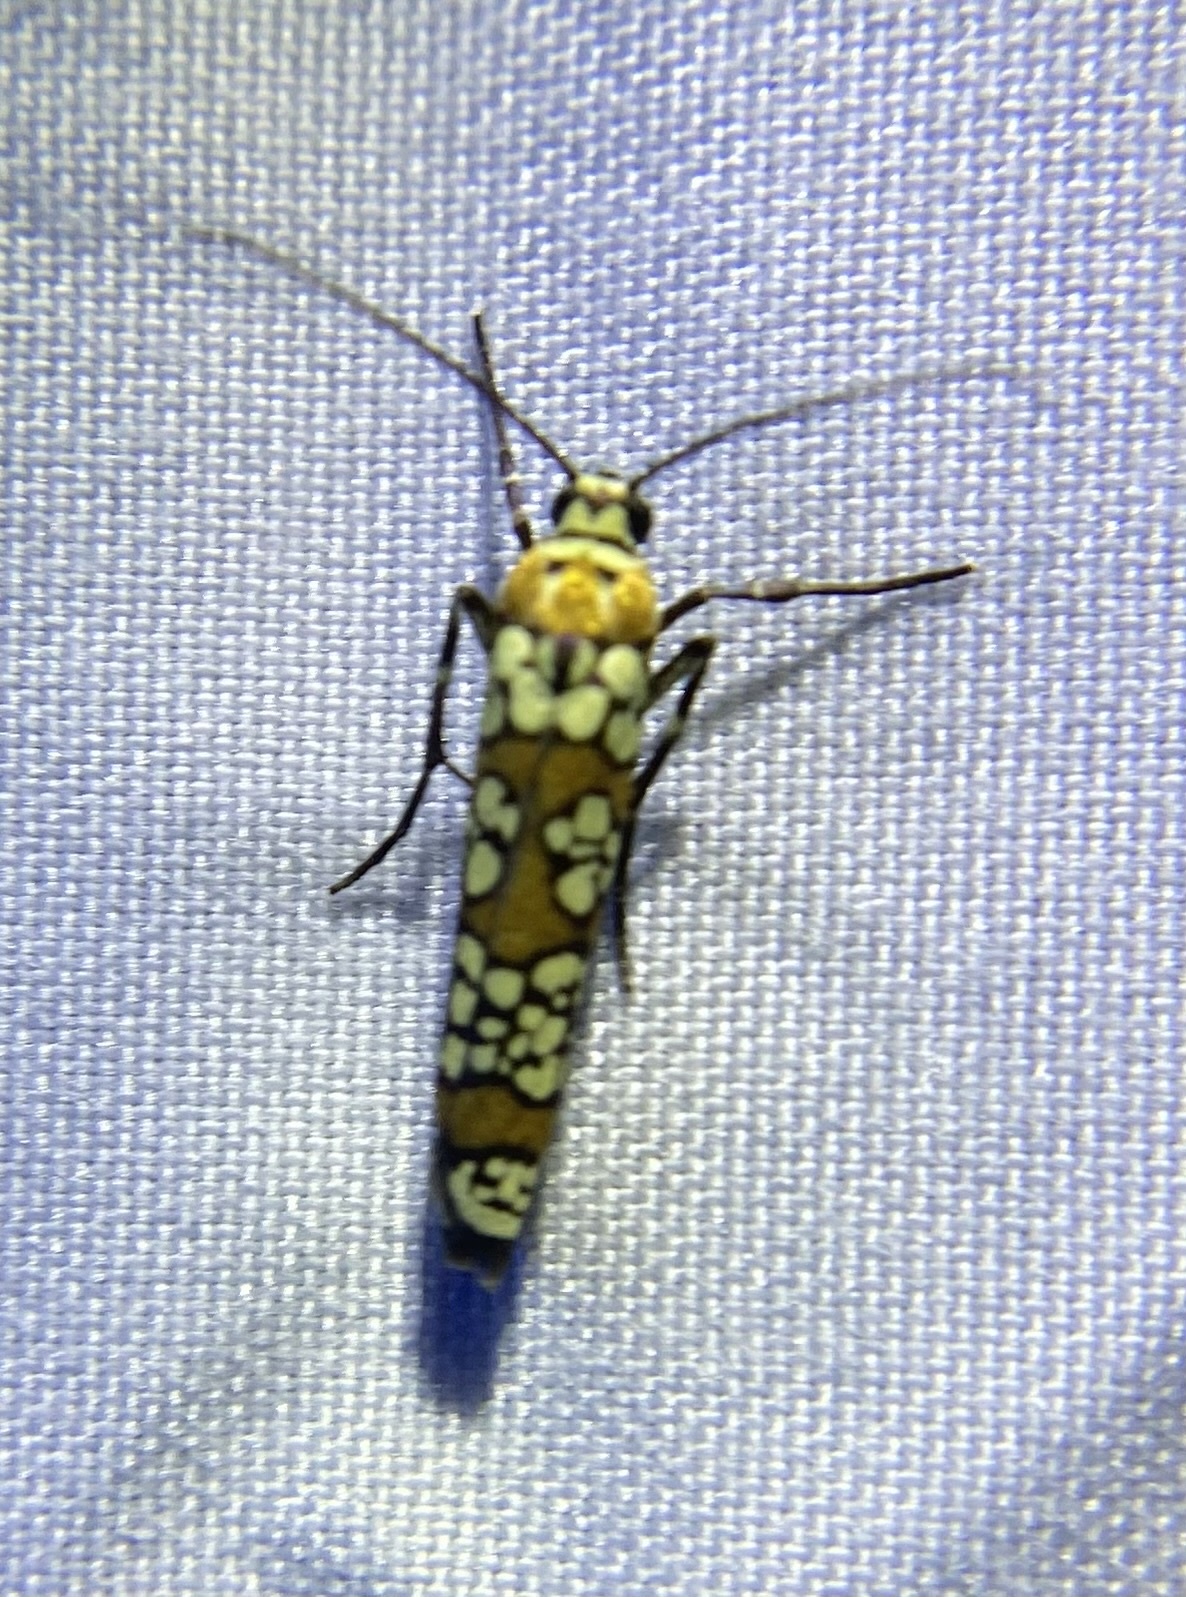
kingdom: Animalia
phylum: Arthropoda
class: Insecta
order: Lepidoptera
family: Attevidae
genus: Atteva
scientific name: Atteva punctella
